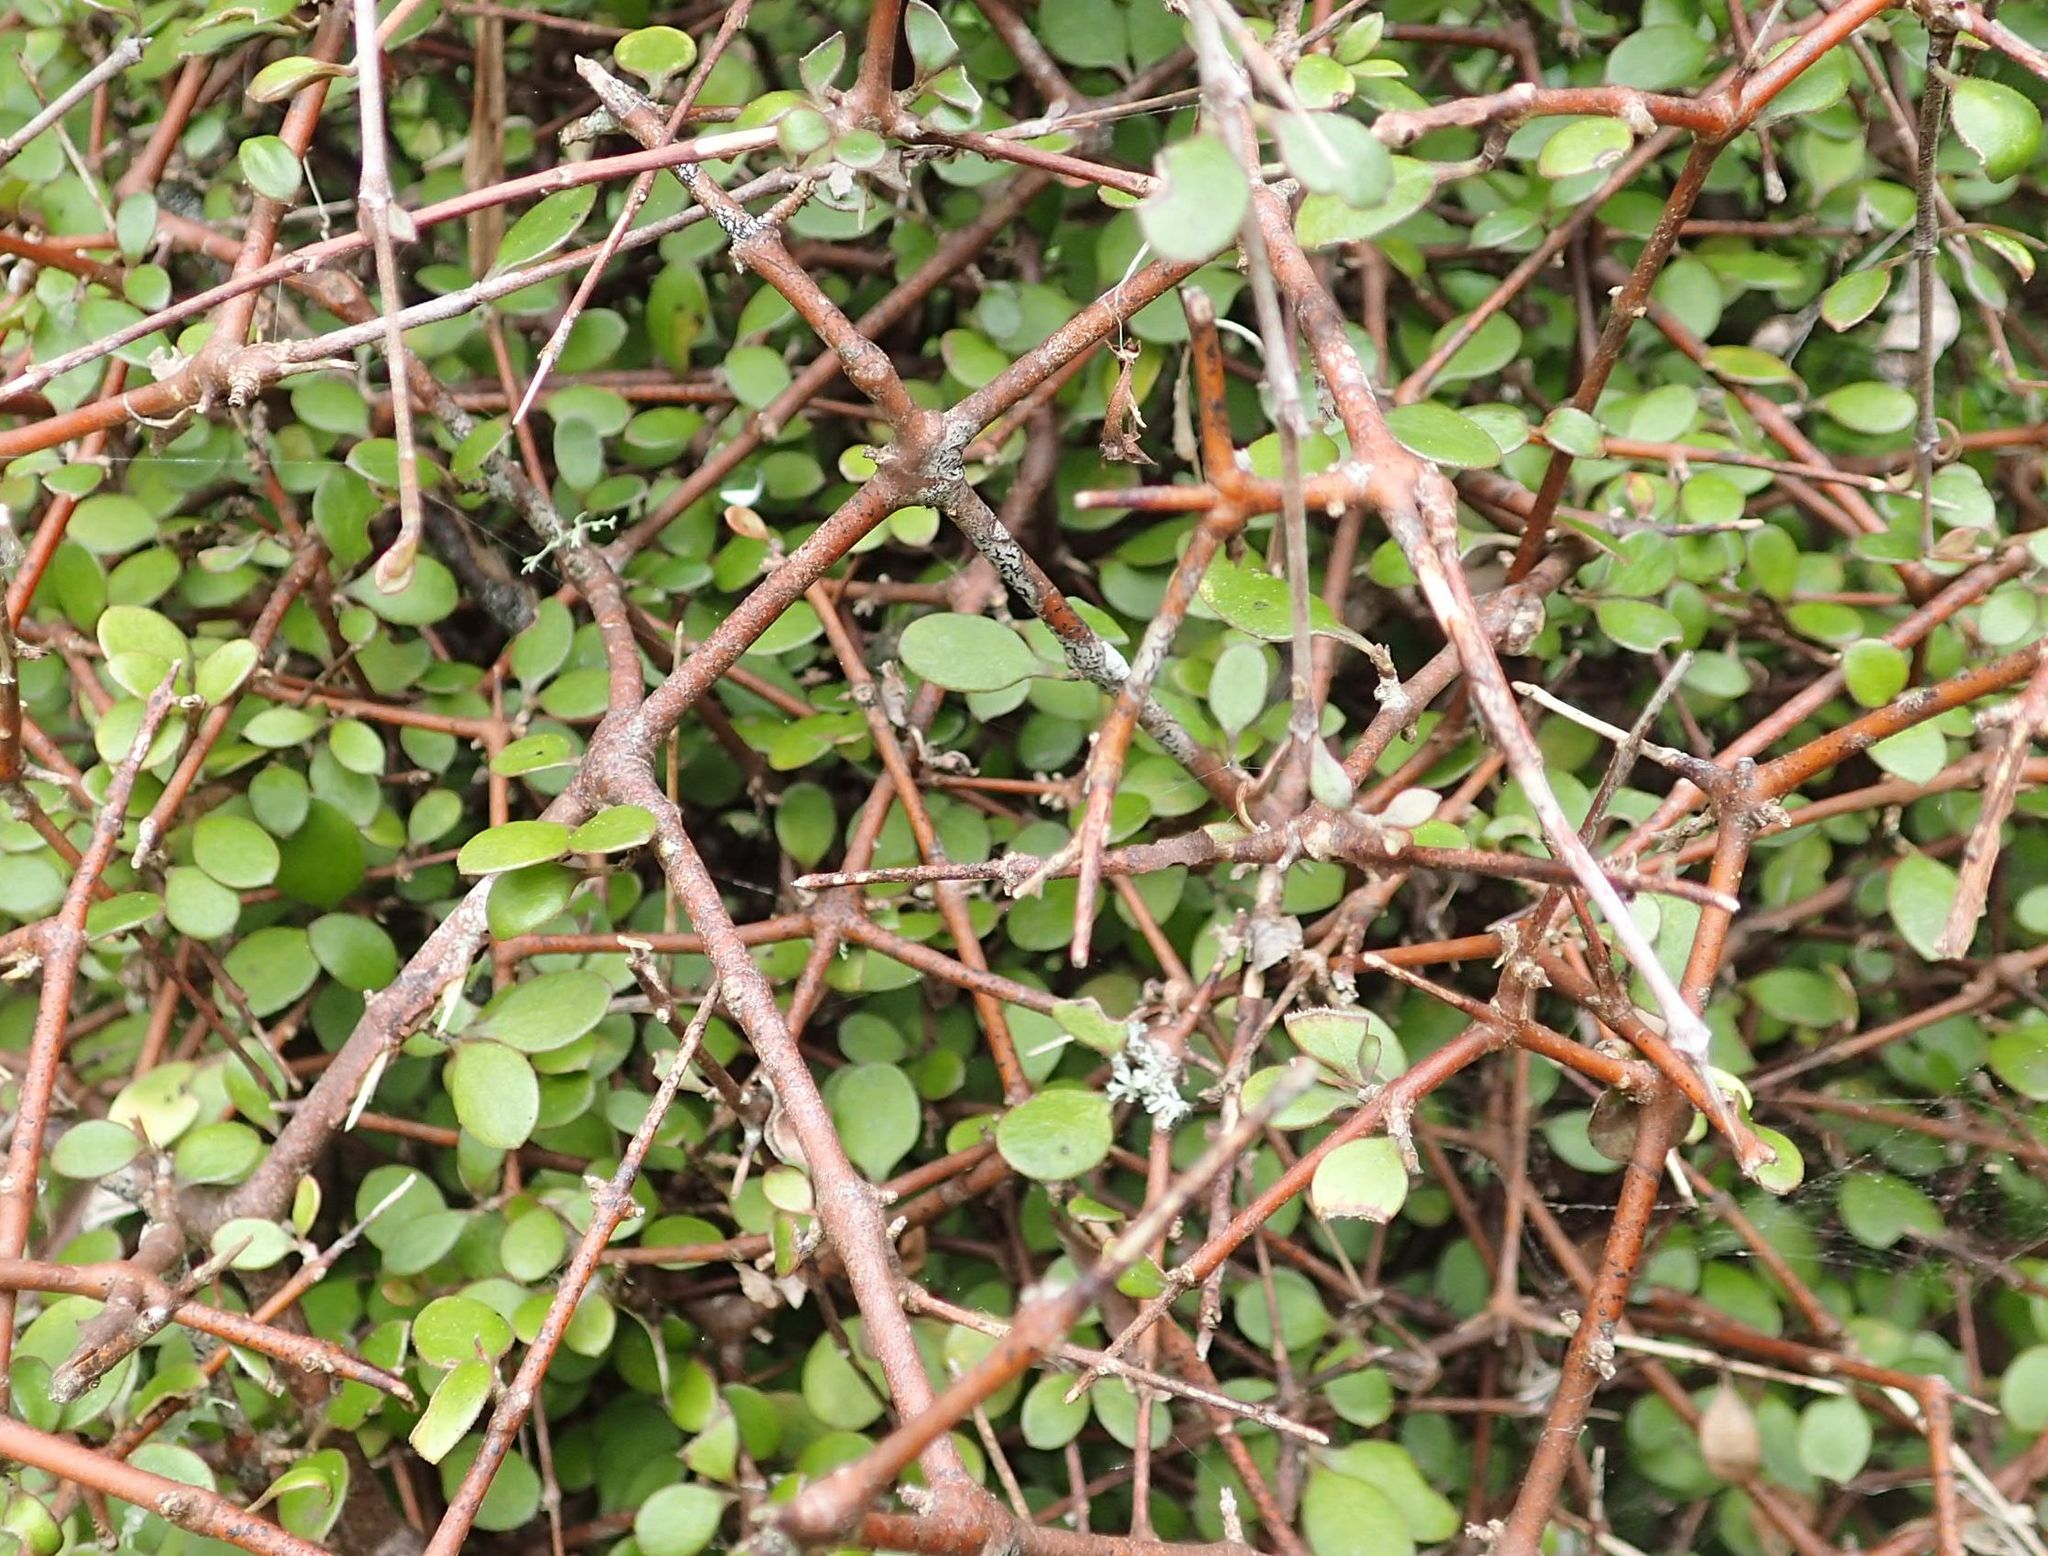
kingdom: Plantae
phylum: Tracheophyta
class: Magnoliopsida
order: Gentianales
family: Rubiaceae
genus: Coprosma
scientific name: Coprosma crassifolia
